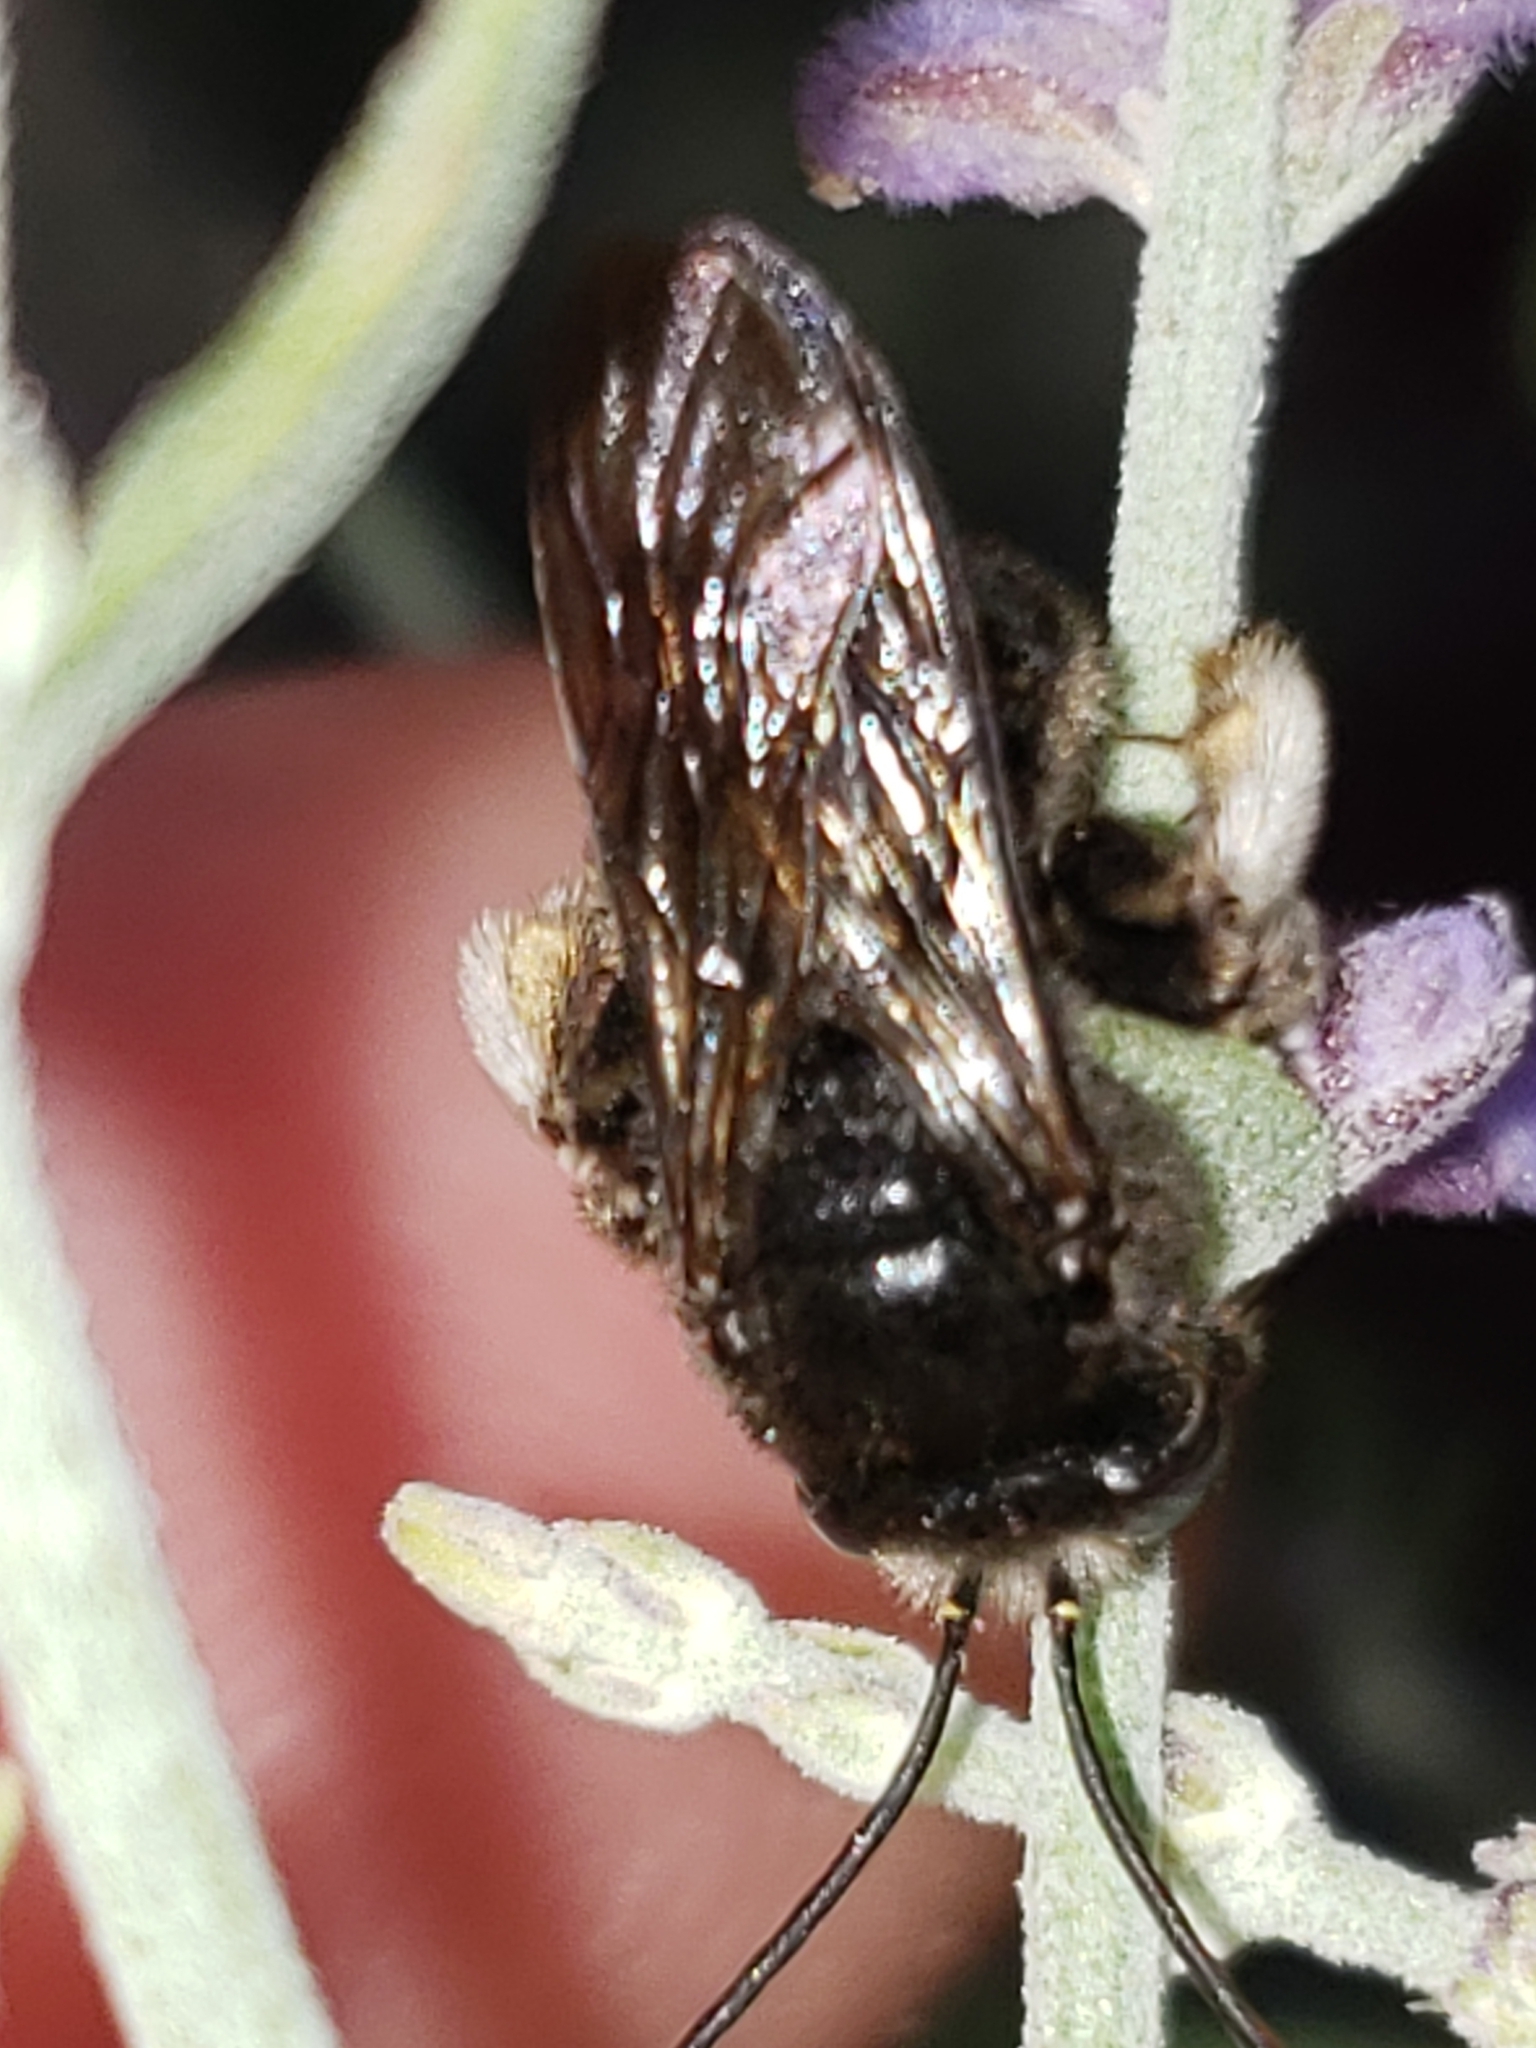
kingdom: Animalia
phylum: Arthropoda
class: Insecta
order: Hymenoptera
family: Apidae
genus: Melissodes
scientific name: Melissodes bimaculatus
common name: Two-spotted long-horned bee
